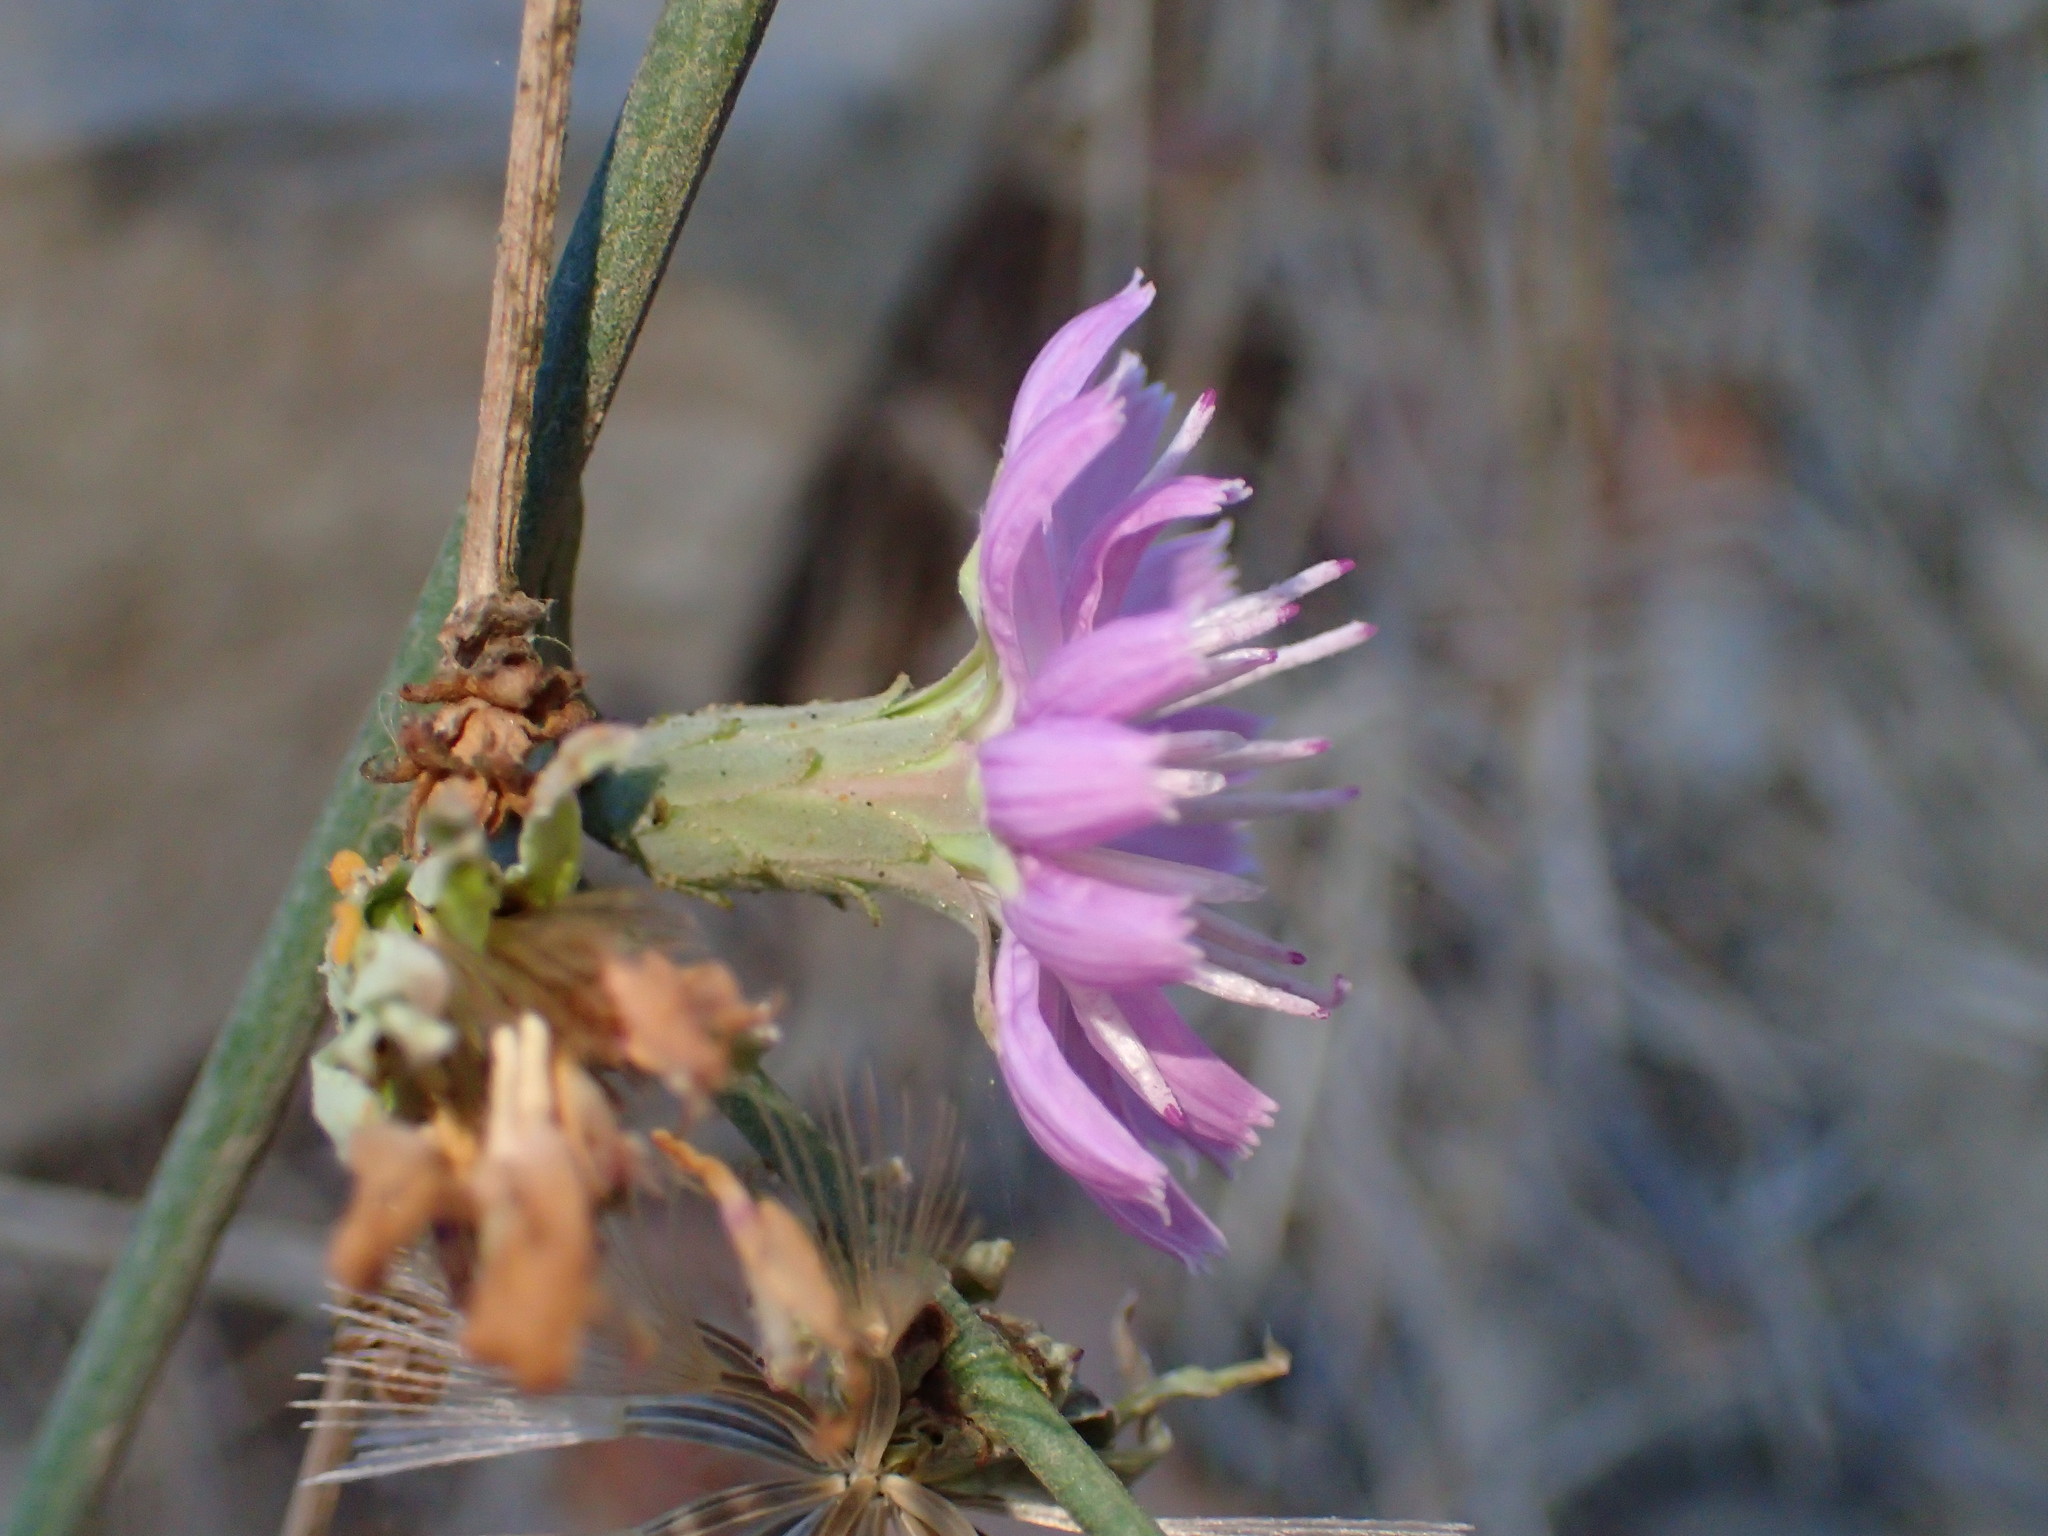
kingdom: Plantae
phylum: Tracheophyta
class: Magnoliopsida
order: Asterales
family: Asteraceae
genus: Stephanomeria
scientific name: Stephanomeria cichoriacea
